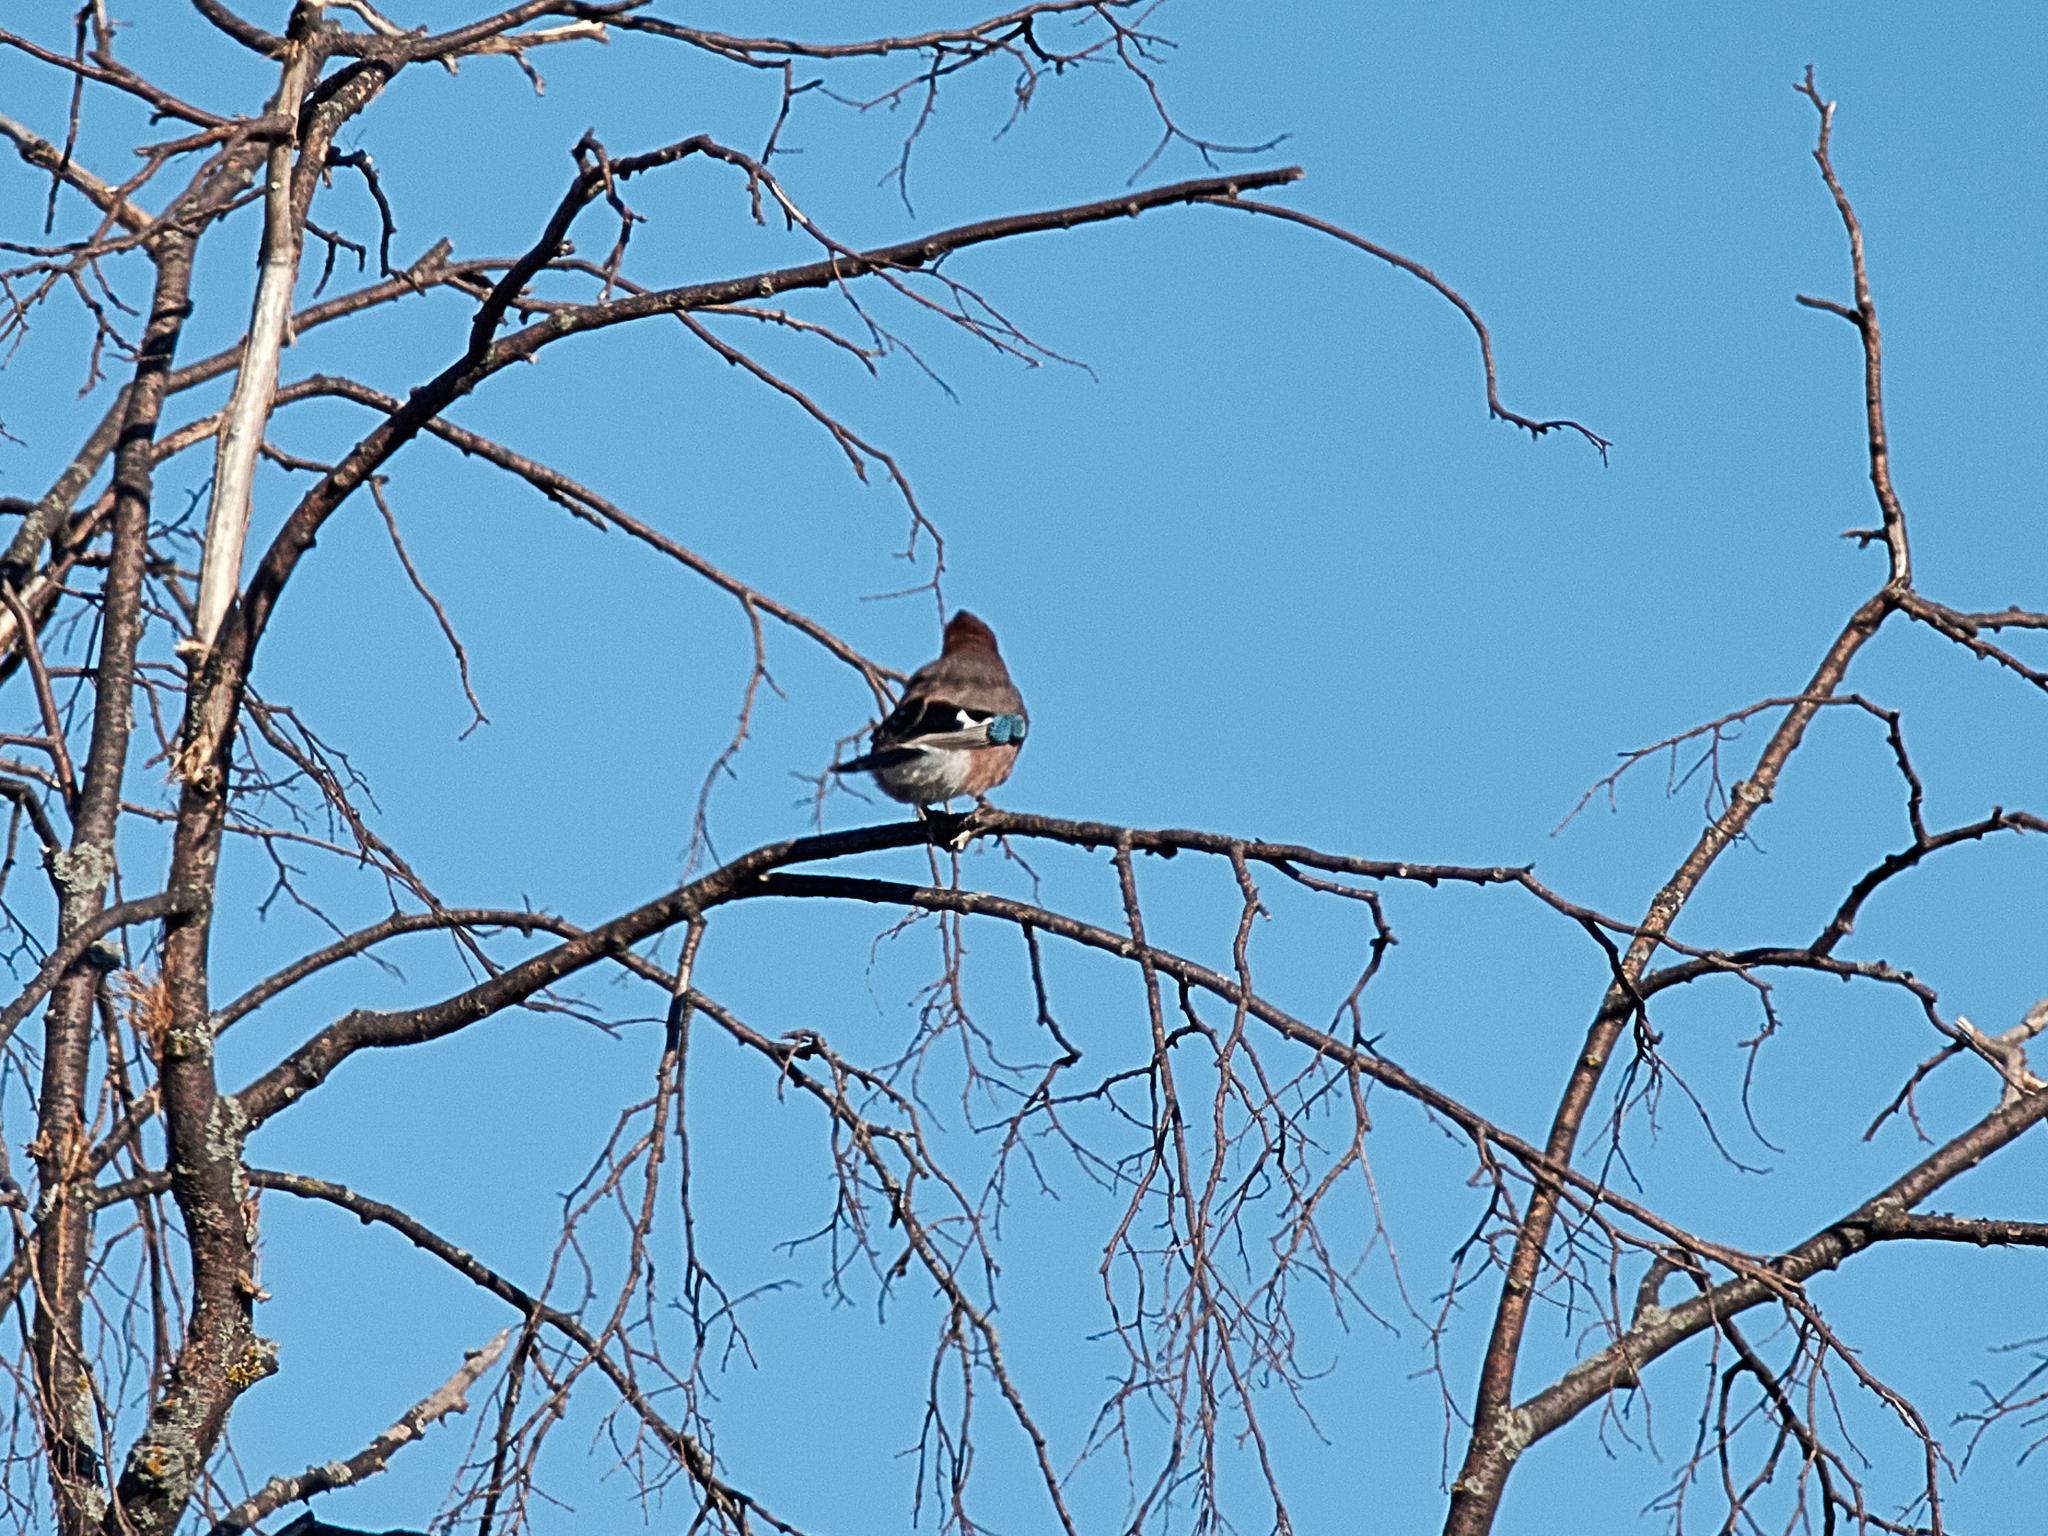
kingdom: Animalia
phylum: Chordata
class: Aves
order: Passeriformes
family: Corvidae
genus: Garrulus
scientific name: Garrulus glandarius
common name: Eurasian jay
